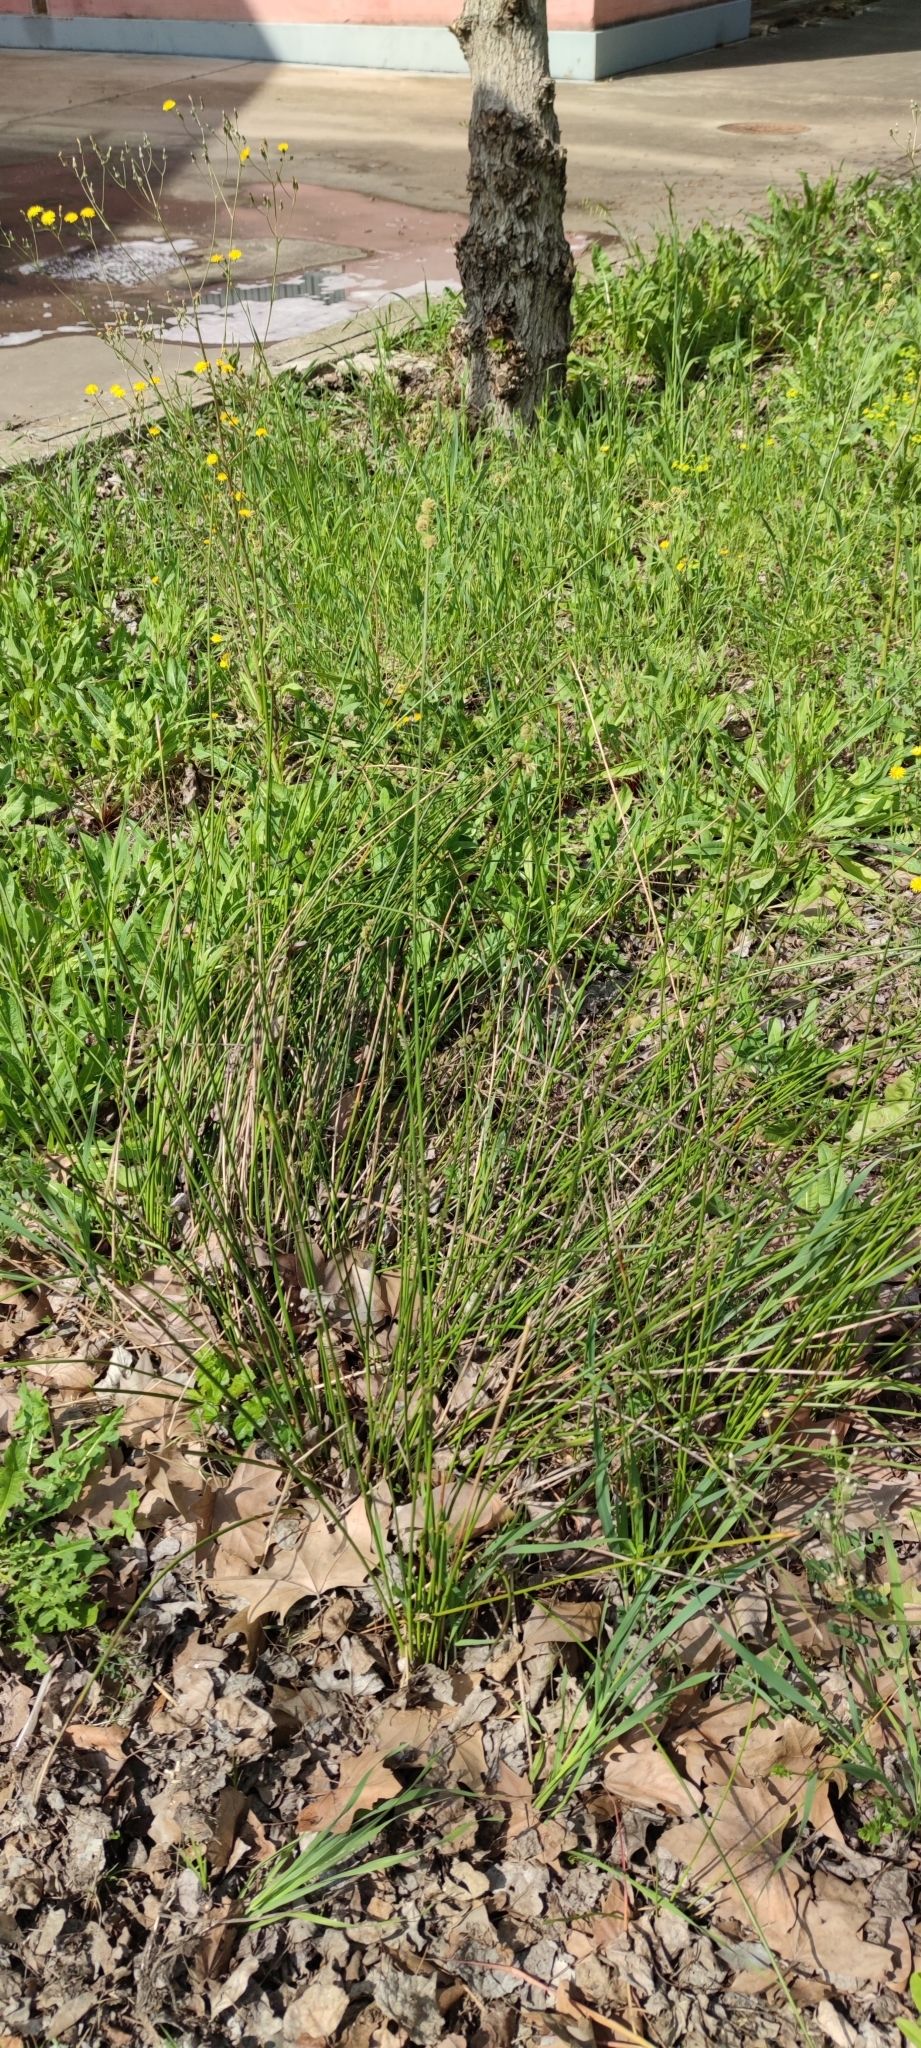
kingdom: Plantae
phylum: Tracheophyta
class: Liliopsida
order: Poales
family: Cyperaceae
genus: Scirpoides
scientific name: Scirpoides holoschoenus
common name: Round-headed club-rush
